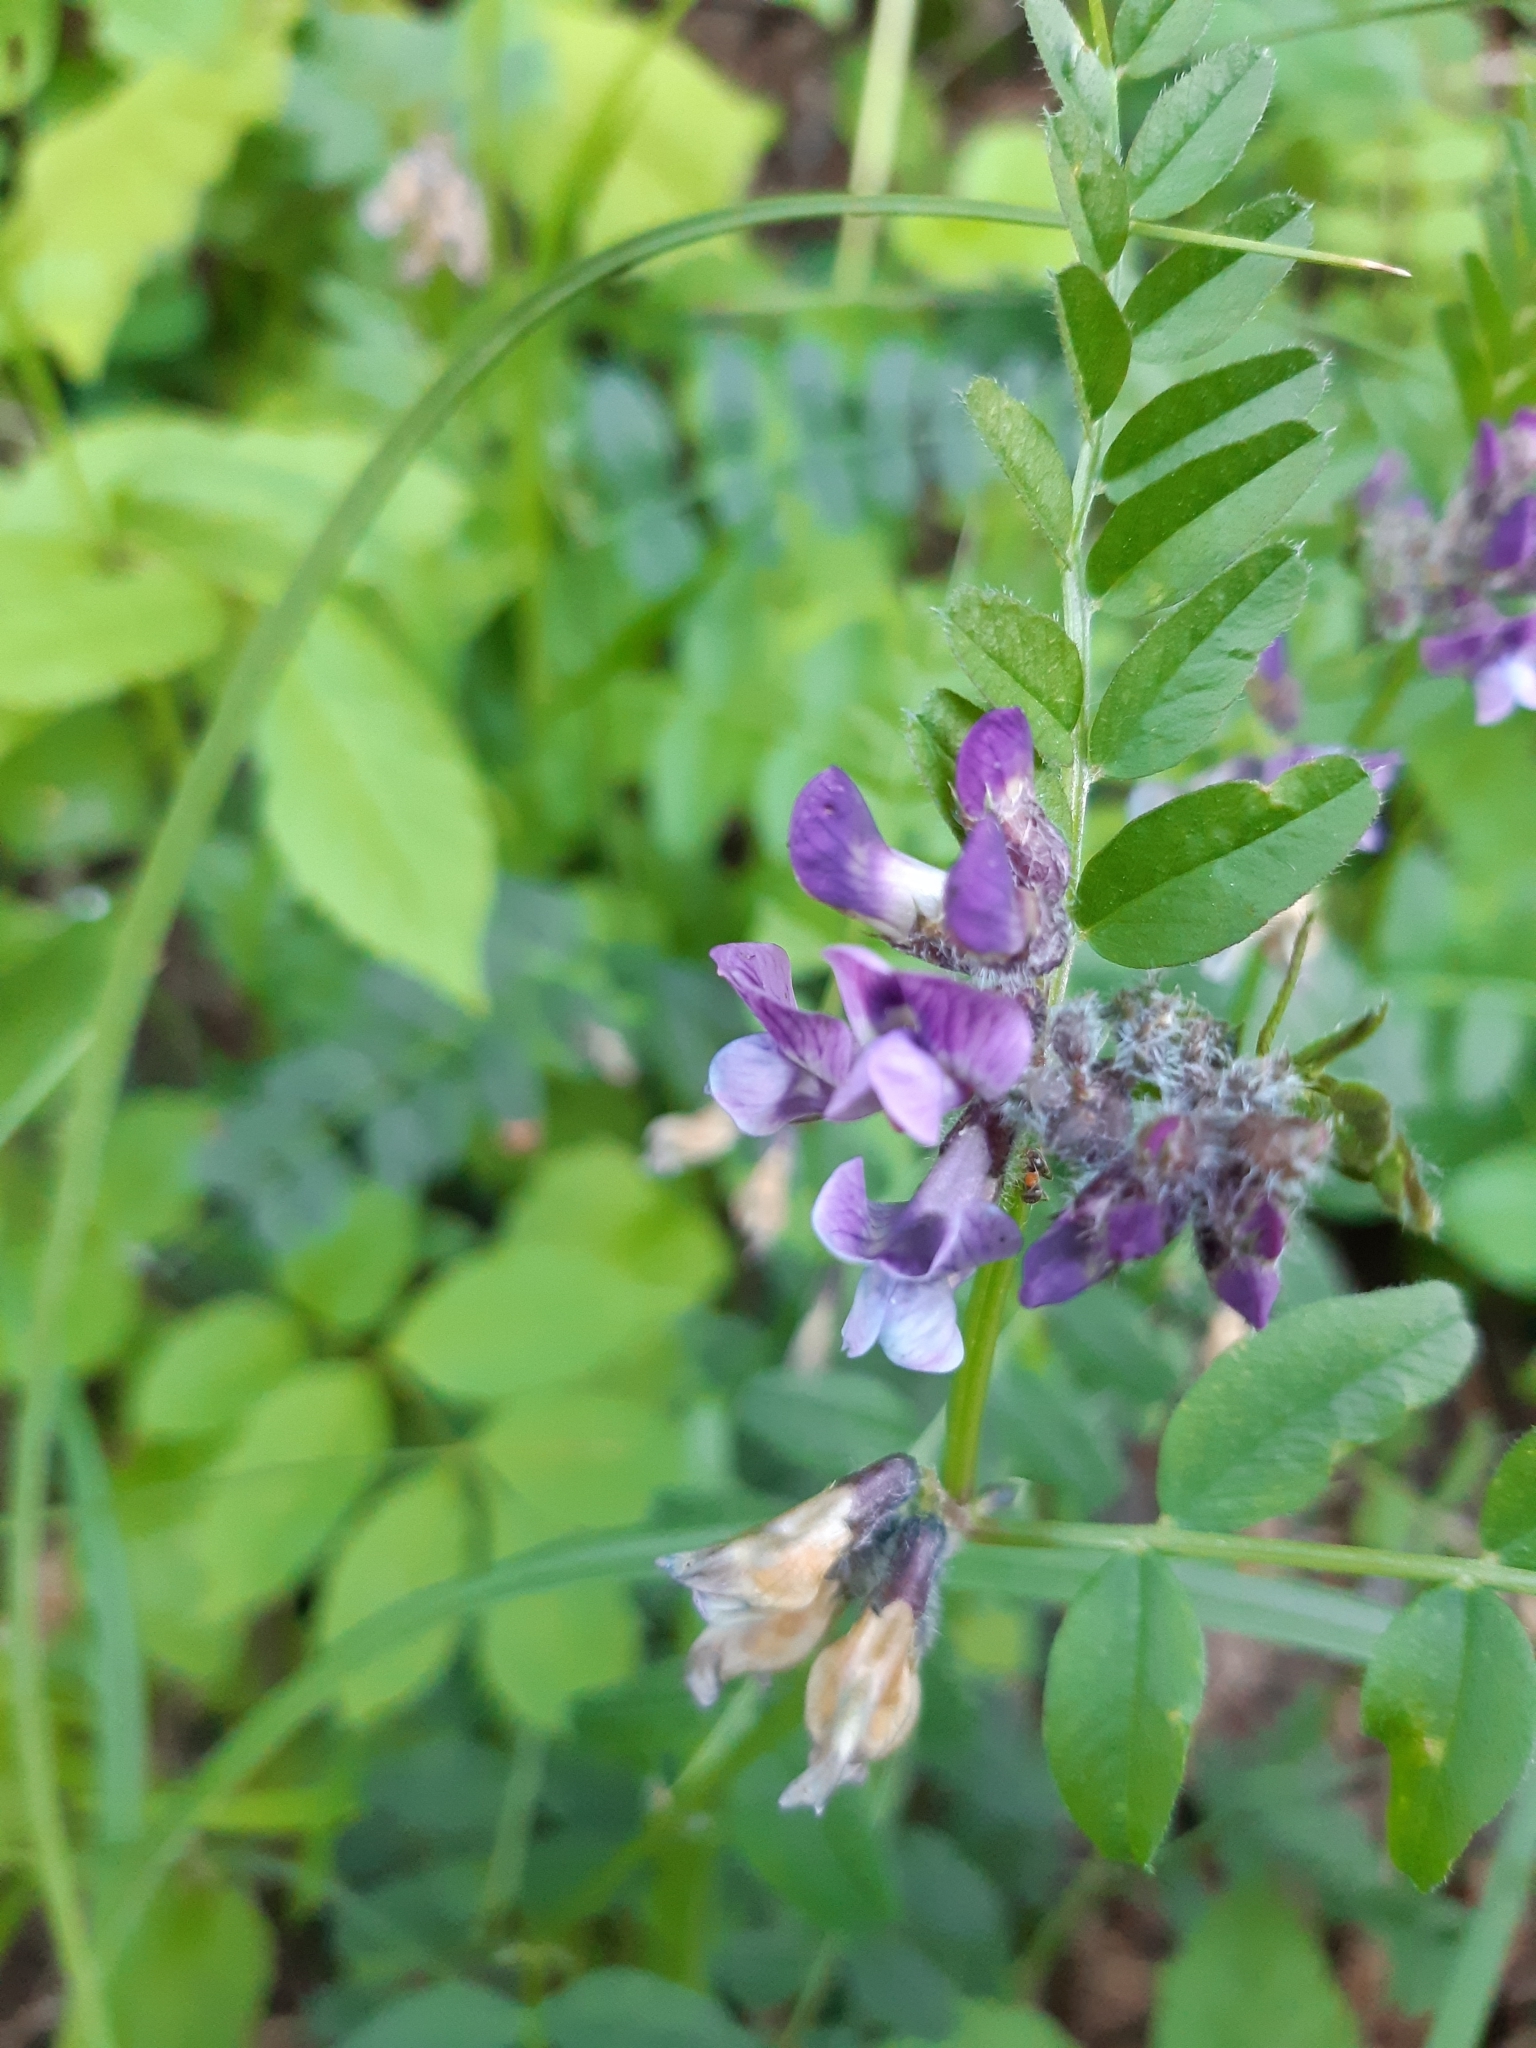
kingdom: Plantae
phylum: Tracheophyta
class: Magnoliopsida
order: Fabales
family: Fabaceae
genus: Vicia
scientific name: Vicia sepium
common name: Bush vetch
